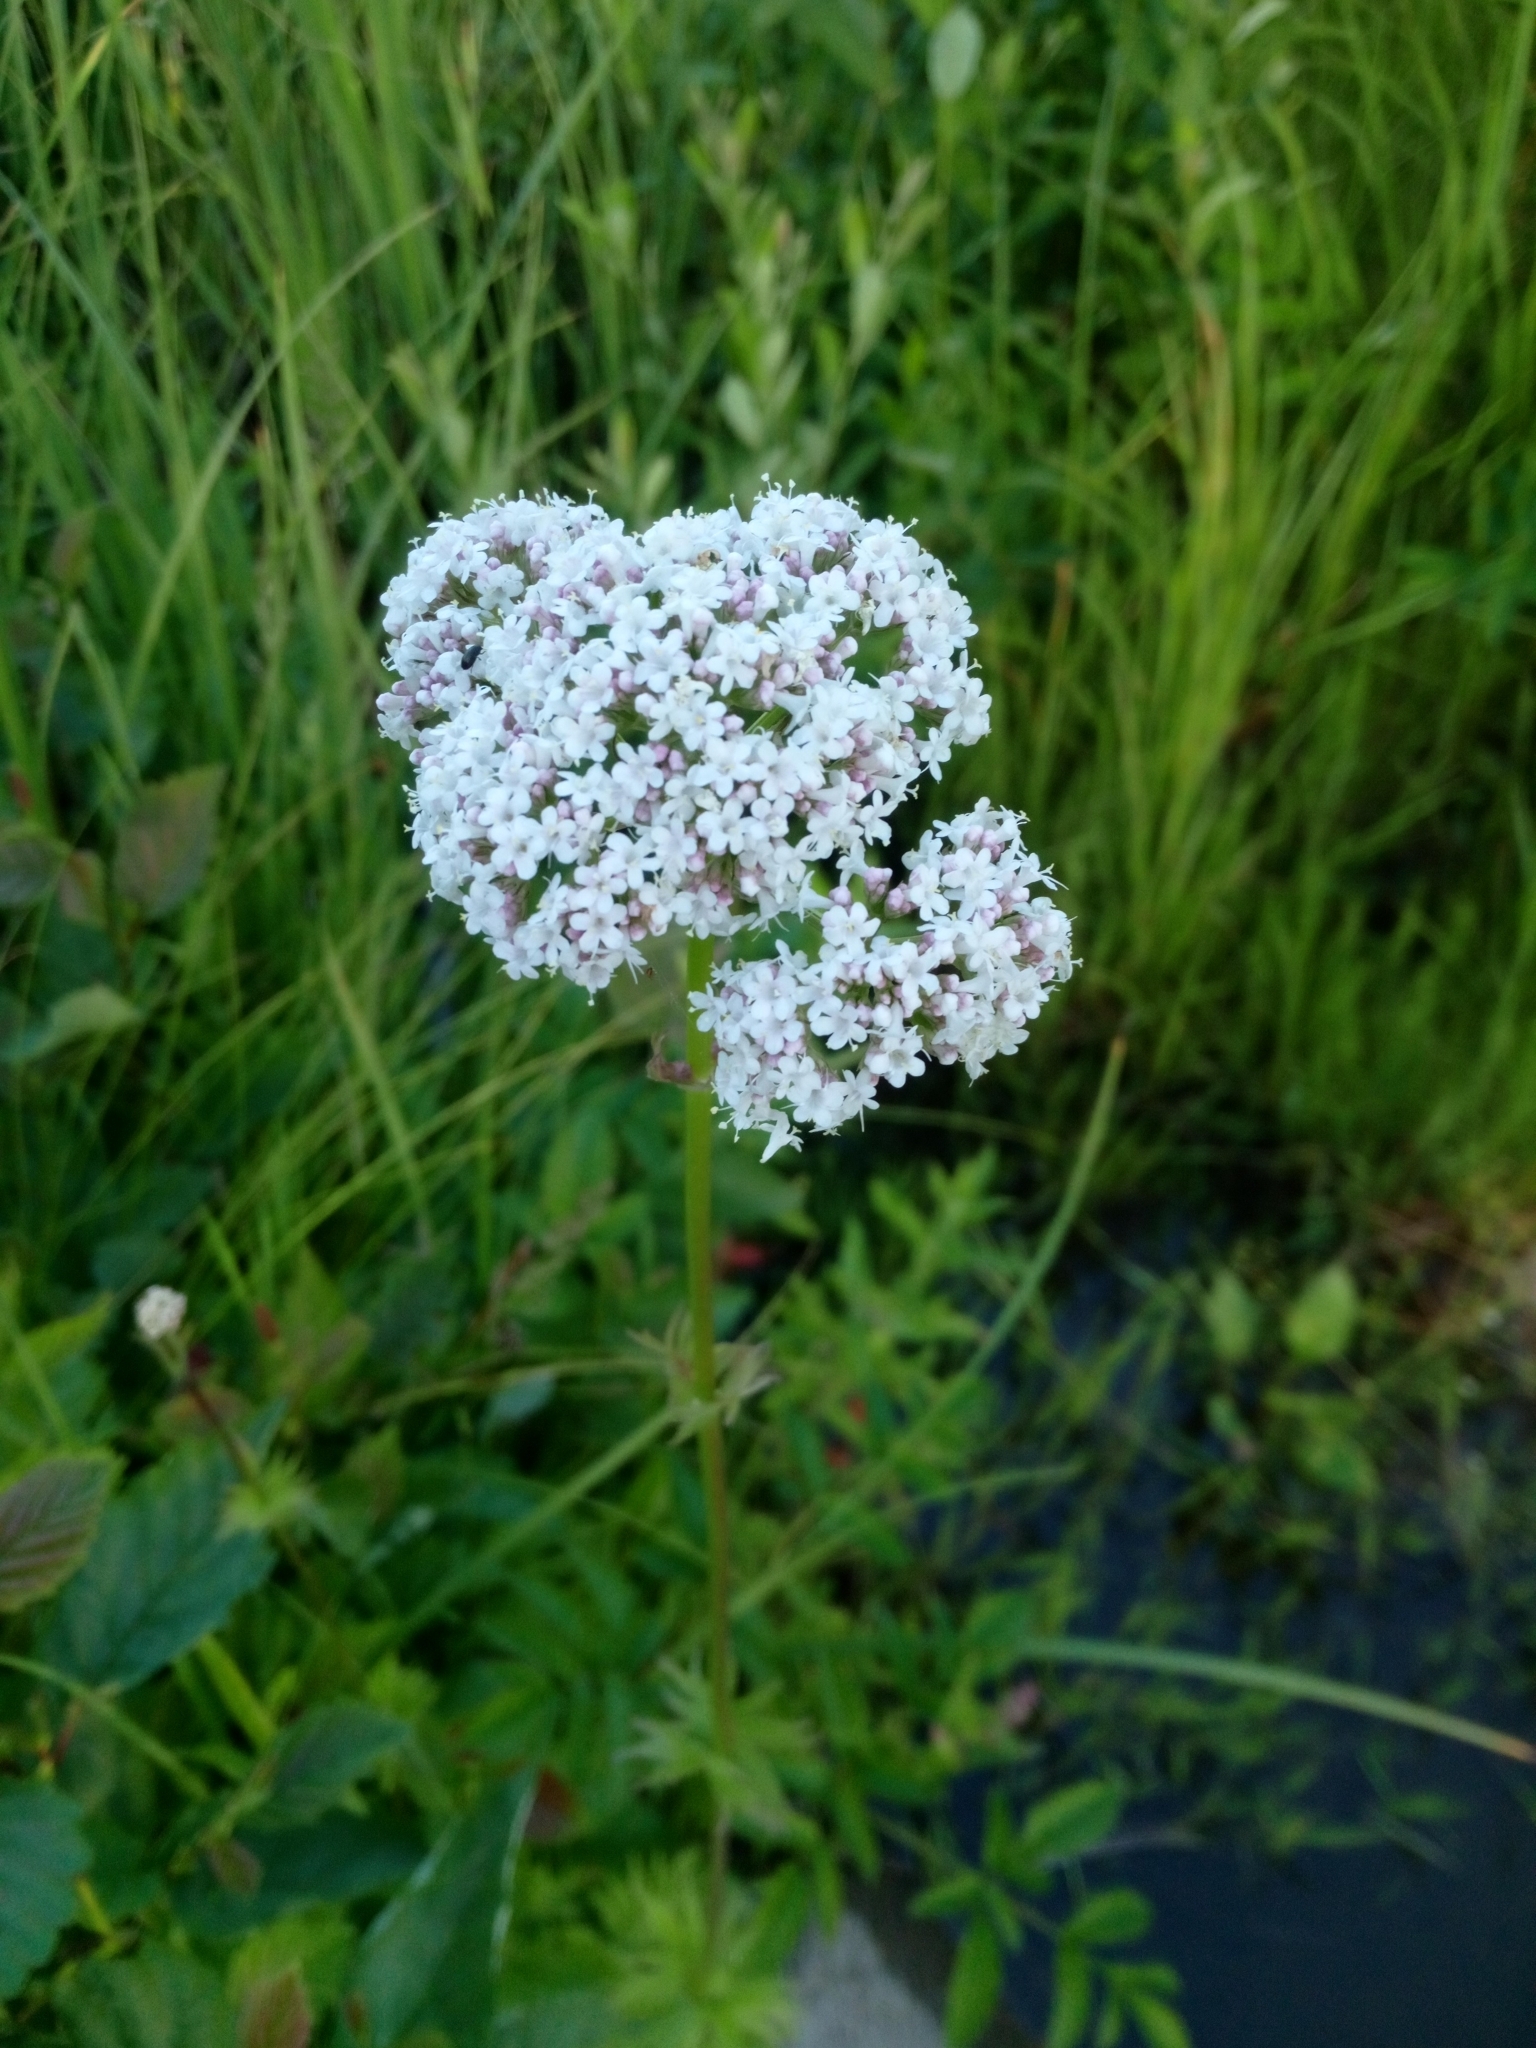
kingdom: Plantae
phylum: Tracheophyta
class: Magnoliopsida
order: Dipsacales
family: Caprifoliaceae
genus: Valeriana
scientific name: Valeriana officinalis
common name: Common valerian
